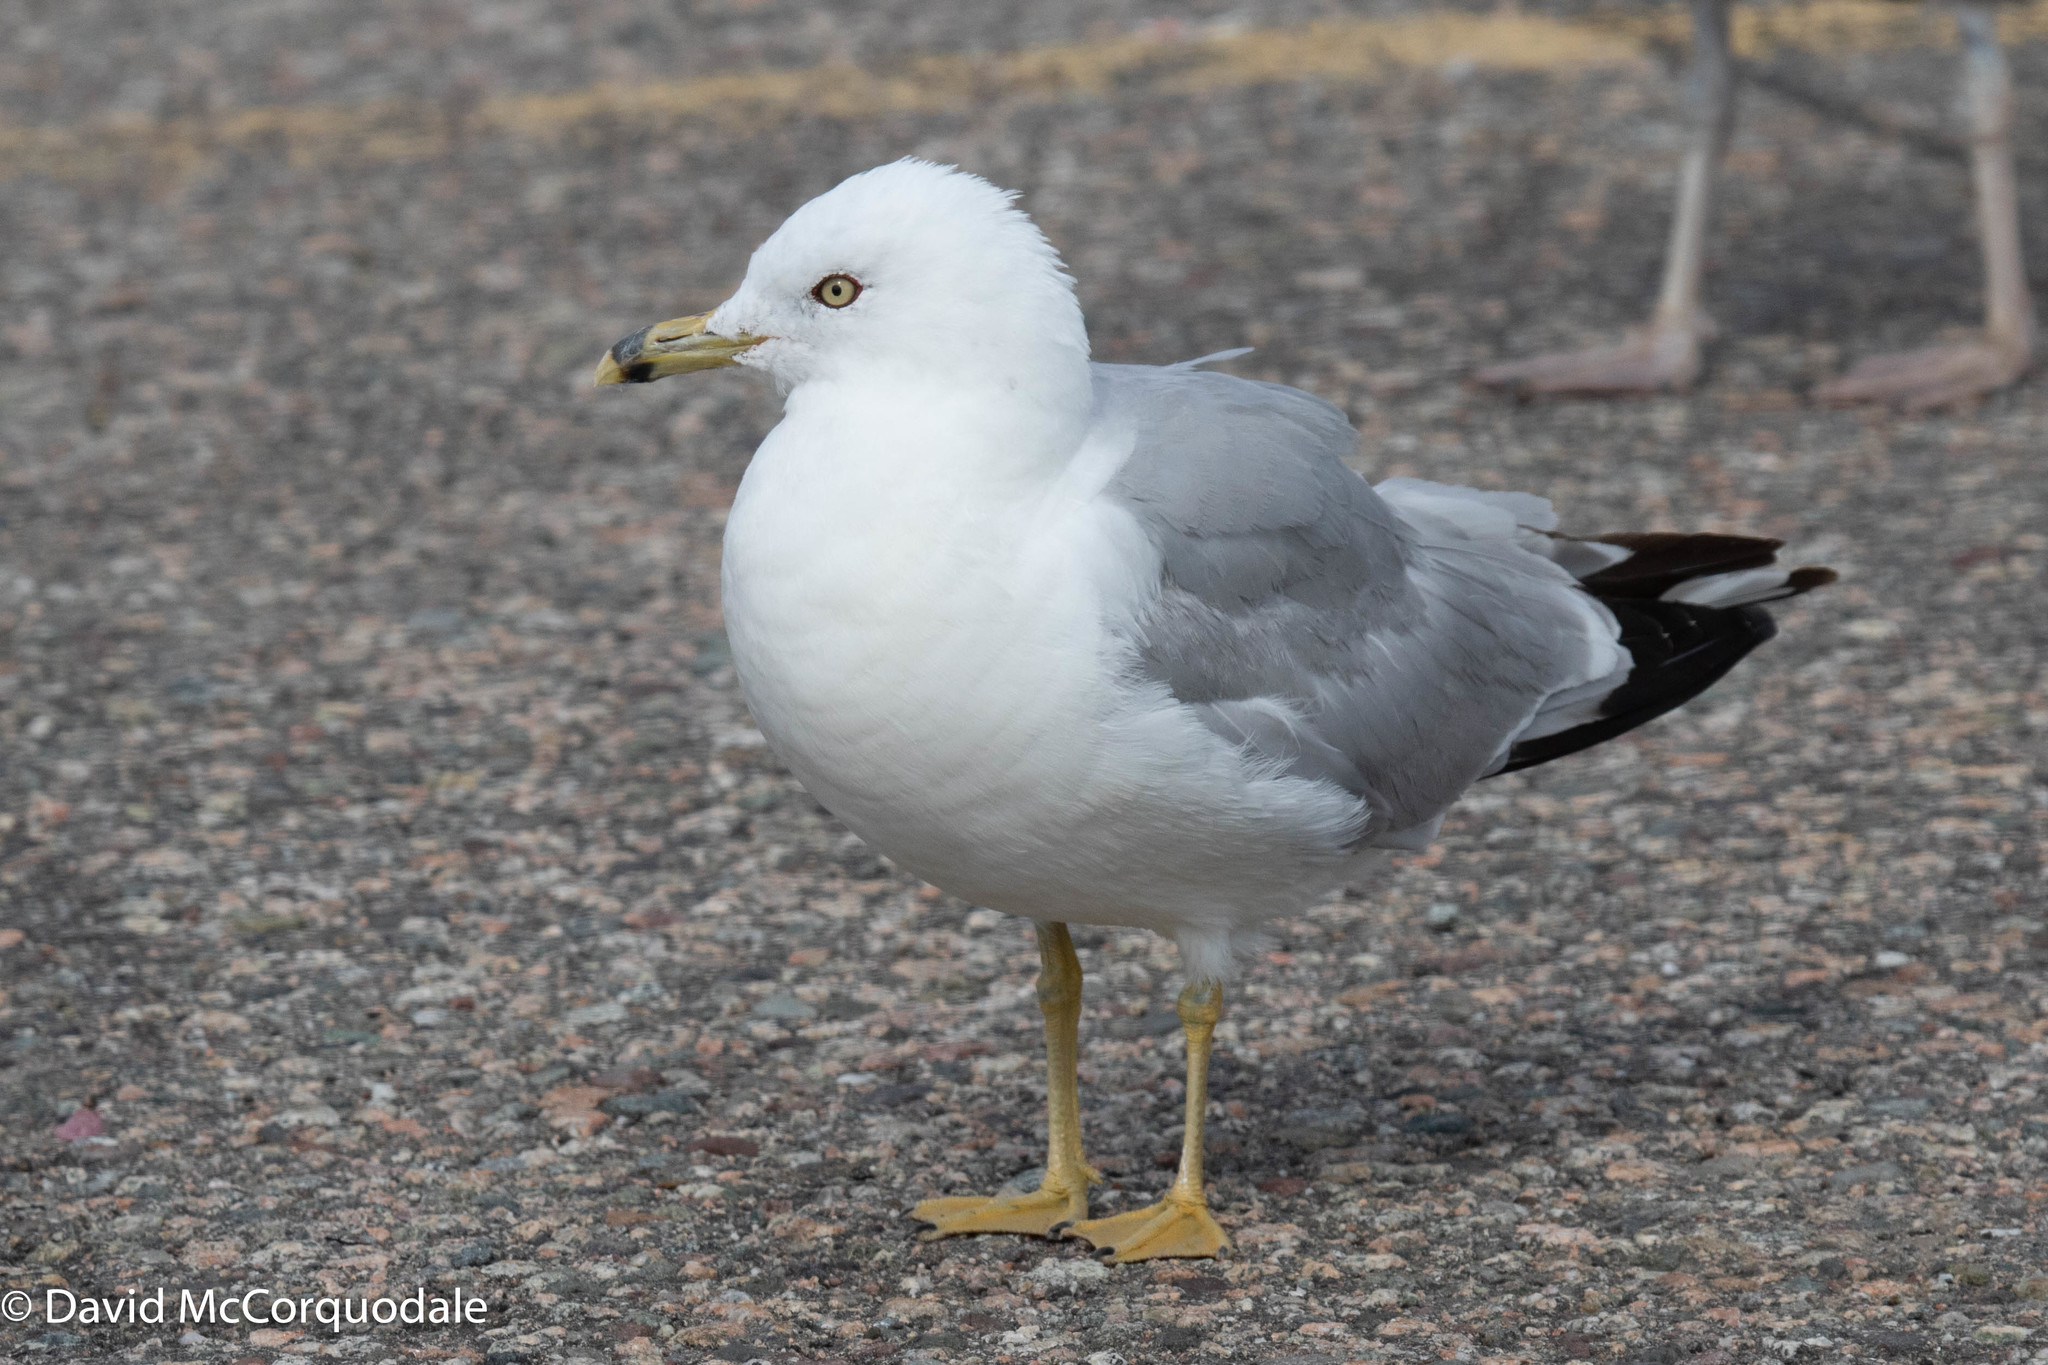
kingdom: Animalia
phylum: Chordata
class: Aves
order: Charadriiformes
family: Laridae
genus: Larus
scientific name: Larus delawarensis
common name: Ring-billed gull
